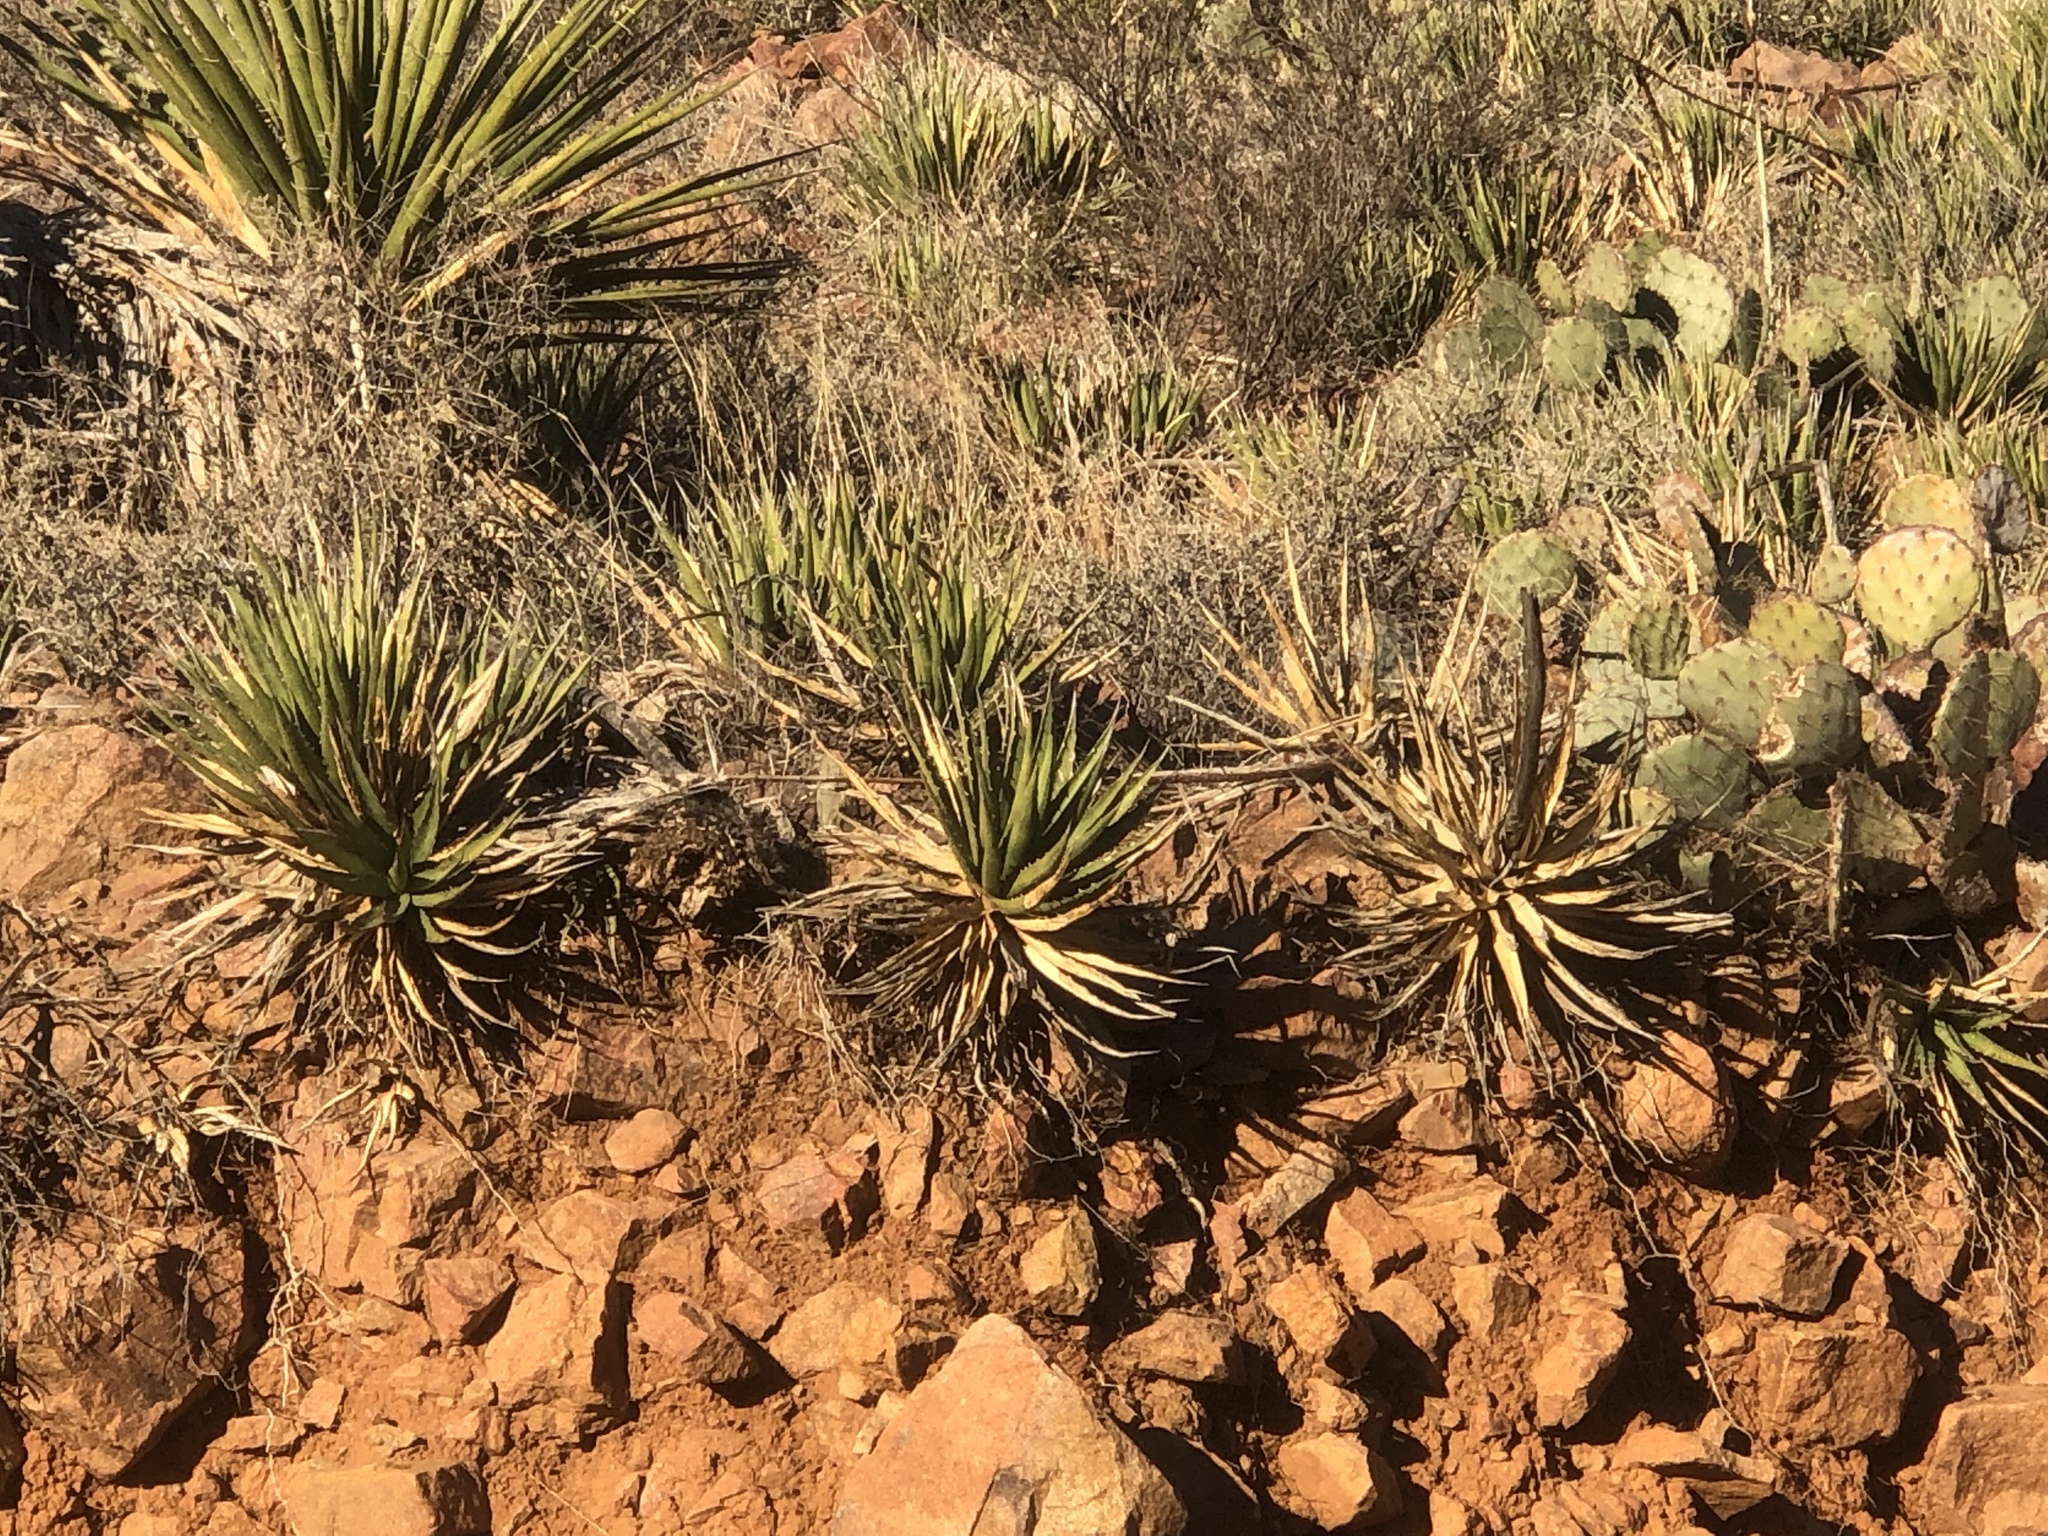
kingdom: Plantae
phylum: Tracheophyta
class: Liliopsida
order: Asparagales
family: Asparagaceae
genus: Agave
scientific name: Agave lechuguilla
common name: Lecheguilla agave
